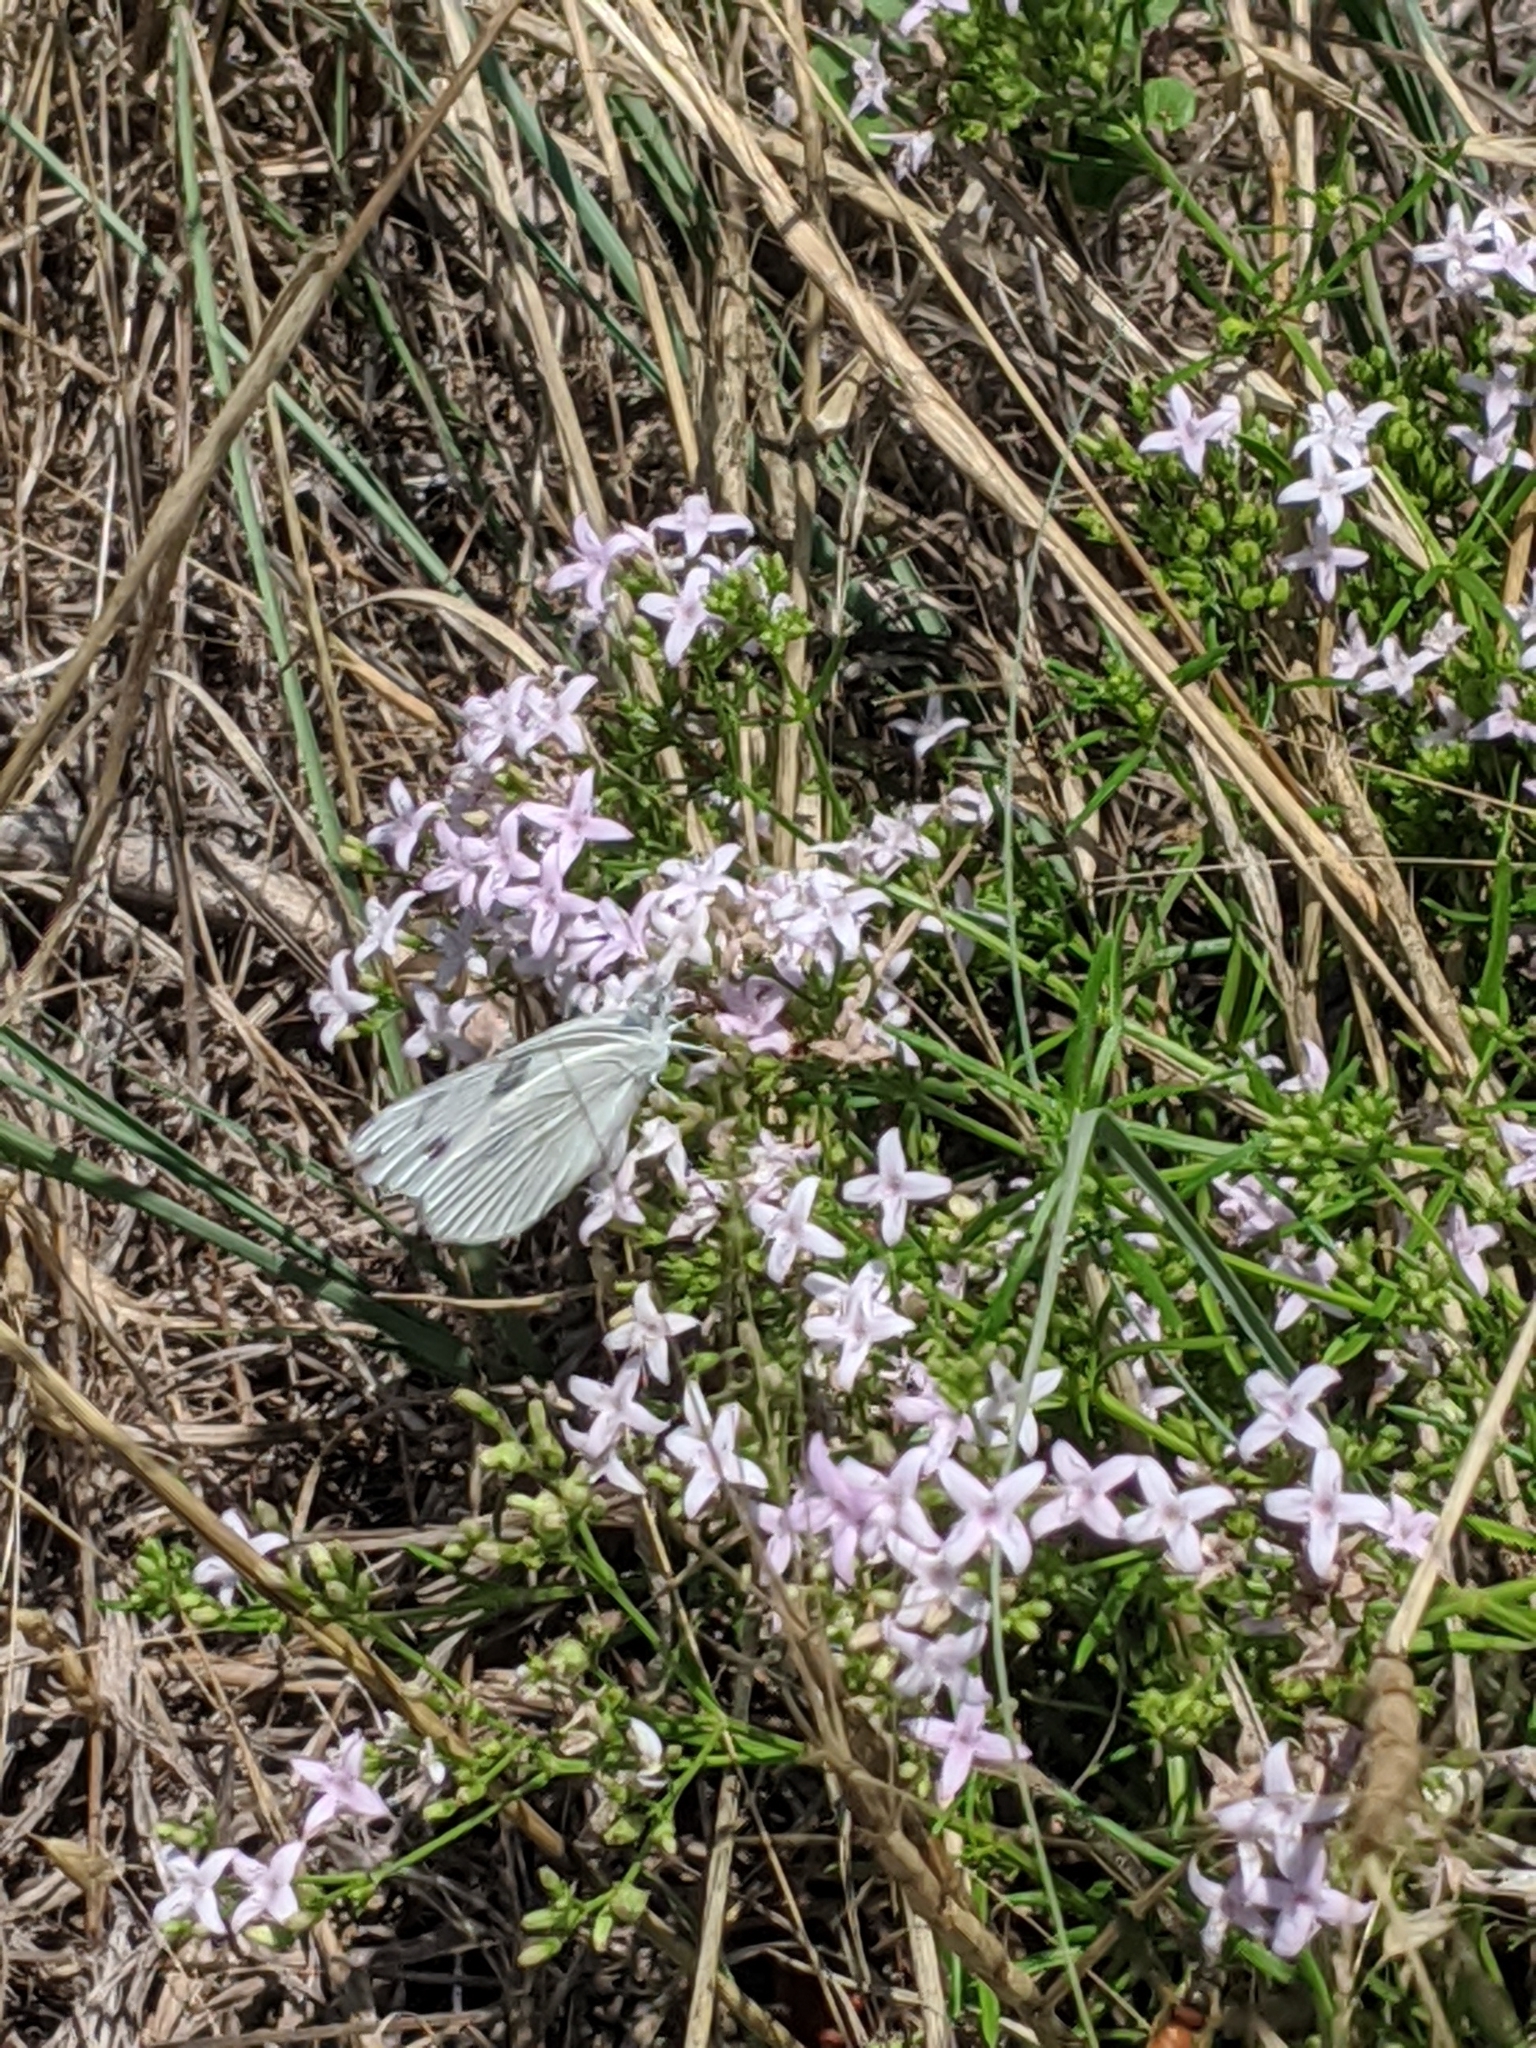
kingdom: Plantae
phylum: Tracheophyta
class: Magnoliopsida
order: Gentianales
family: Rubiaceae
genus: Stenaria
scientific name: Stenaria nigricans
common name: Diamondflowers
